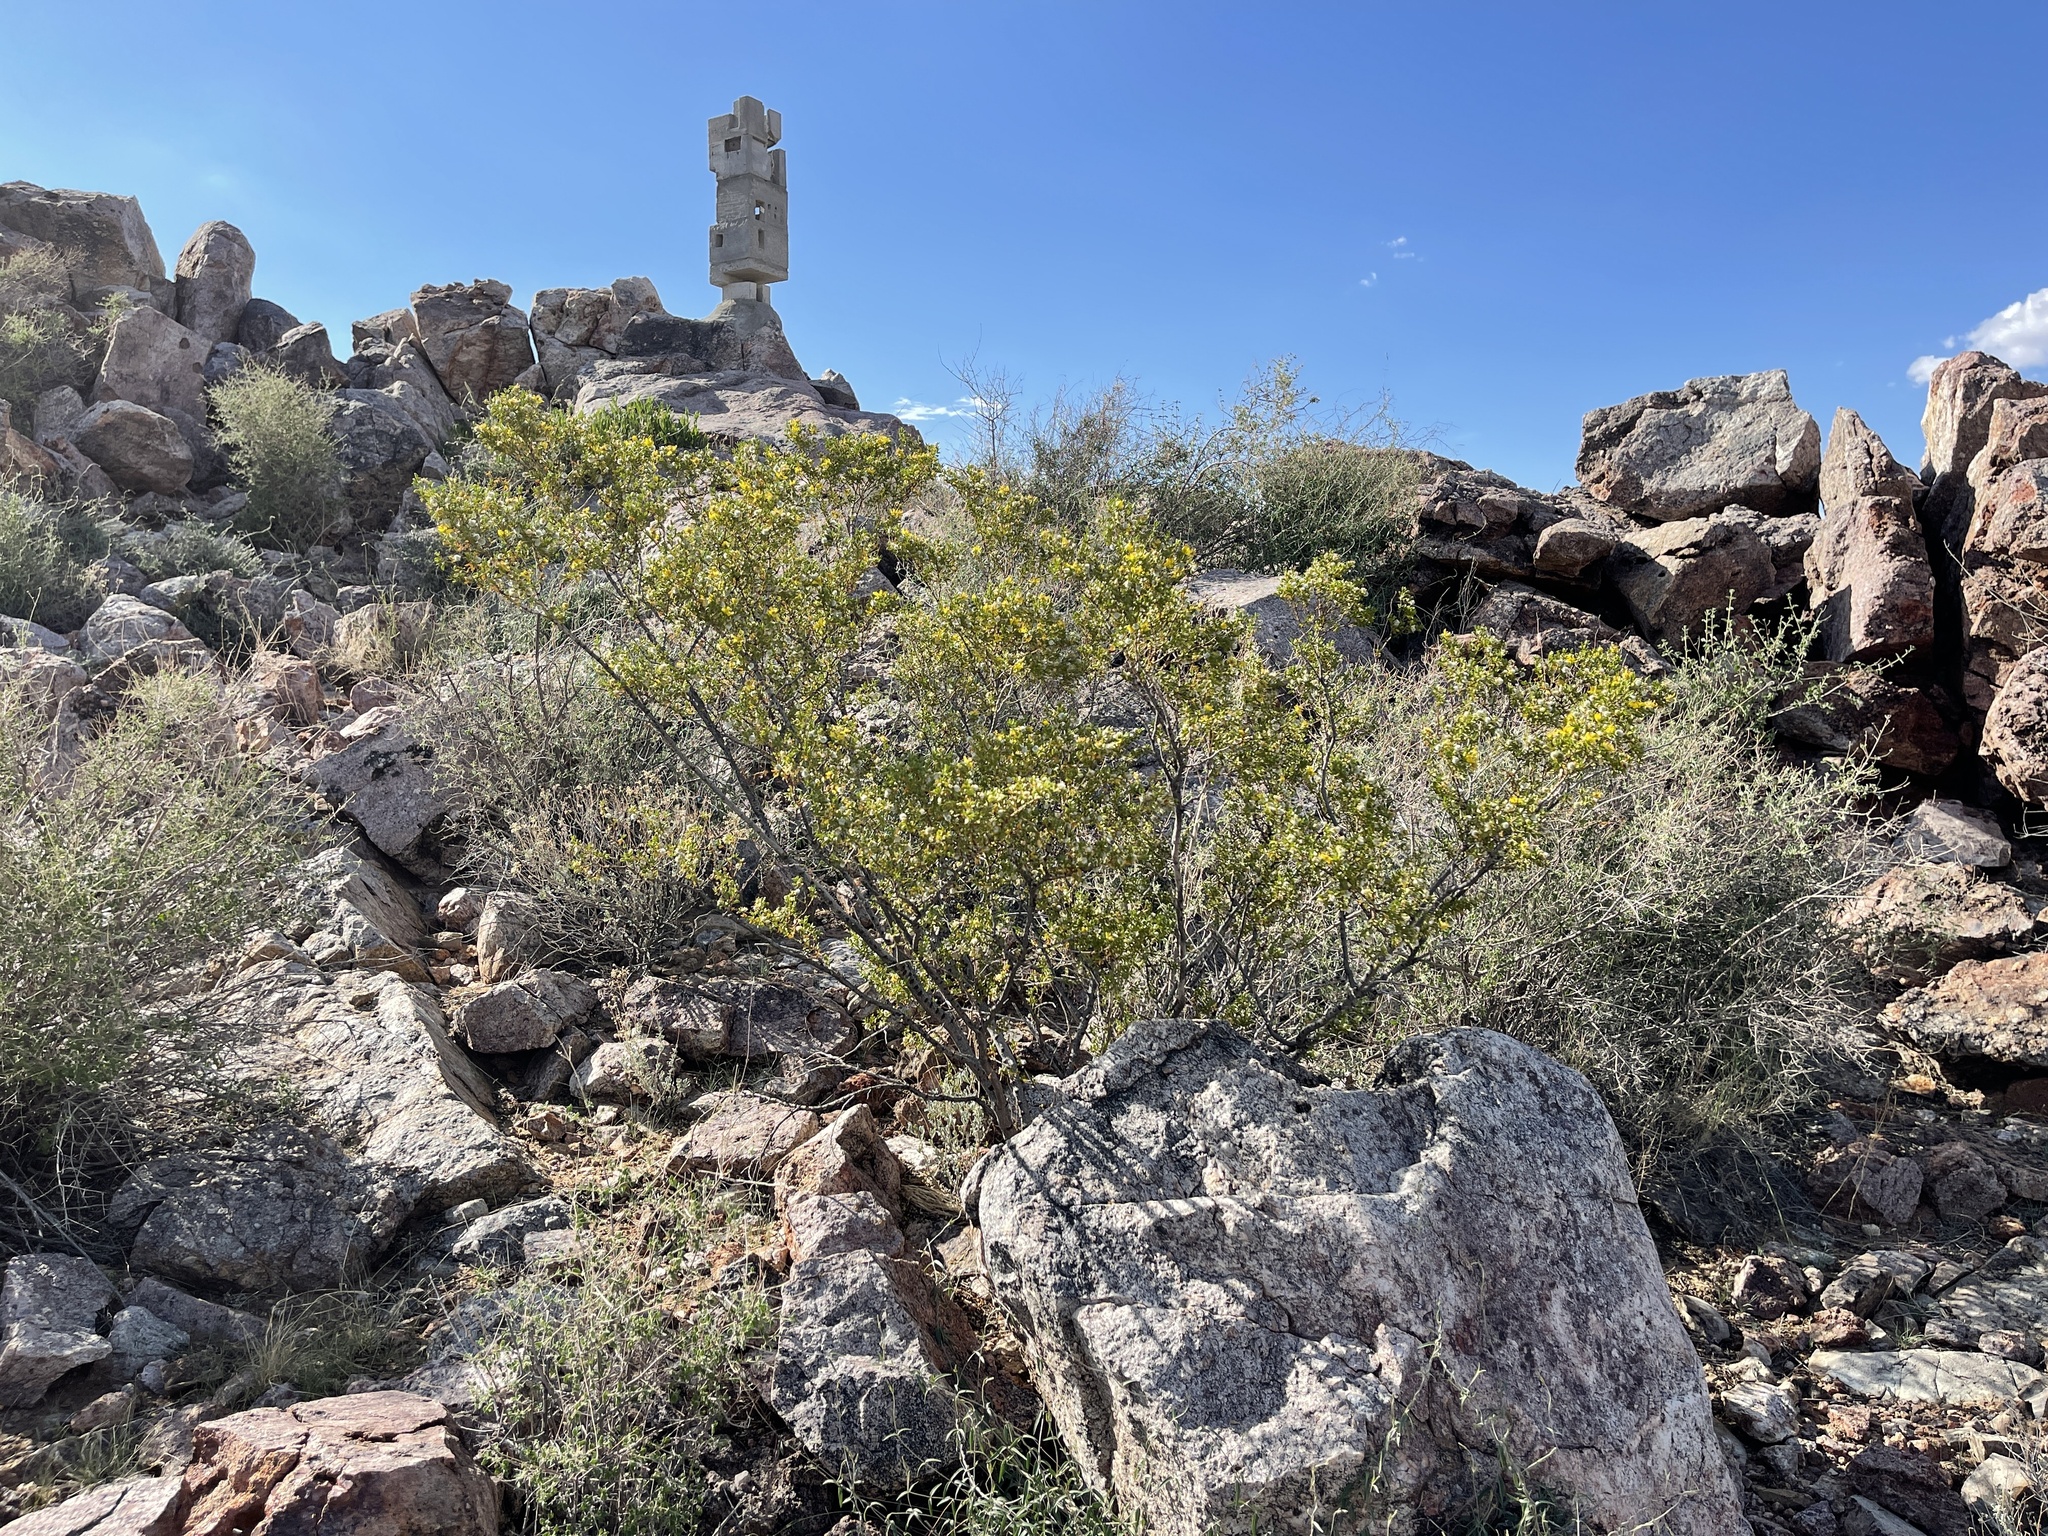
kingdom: Plantae
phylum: Tracheophyta
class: Magnoliopsida
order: Zygophyllales
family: Zygophyllaceae
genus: Larrea
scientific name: Larrea tridentata
